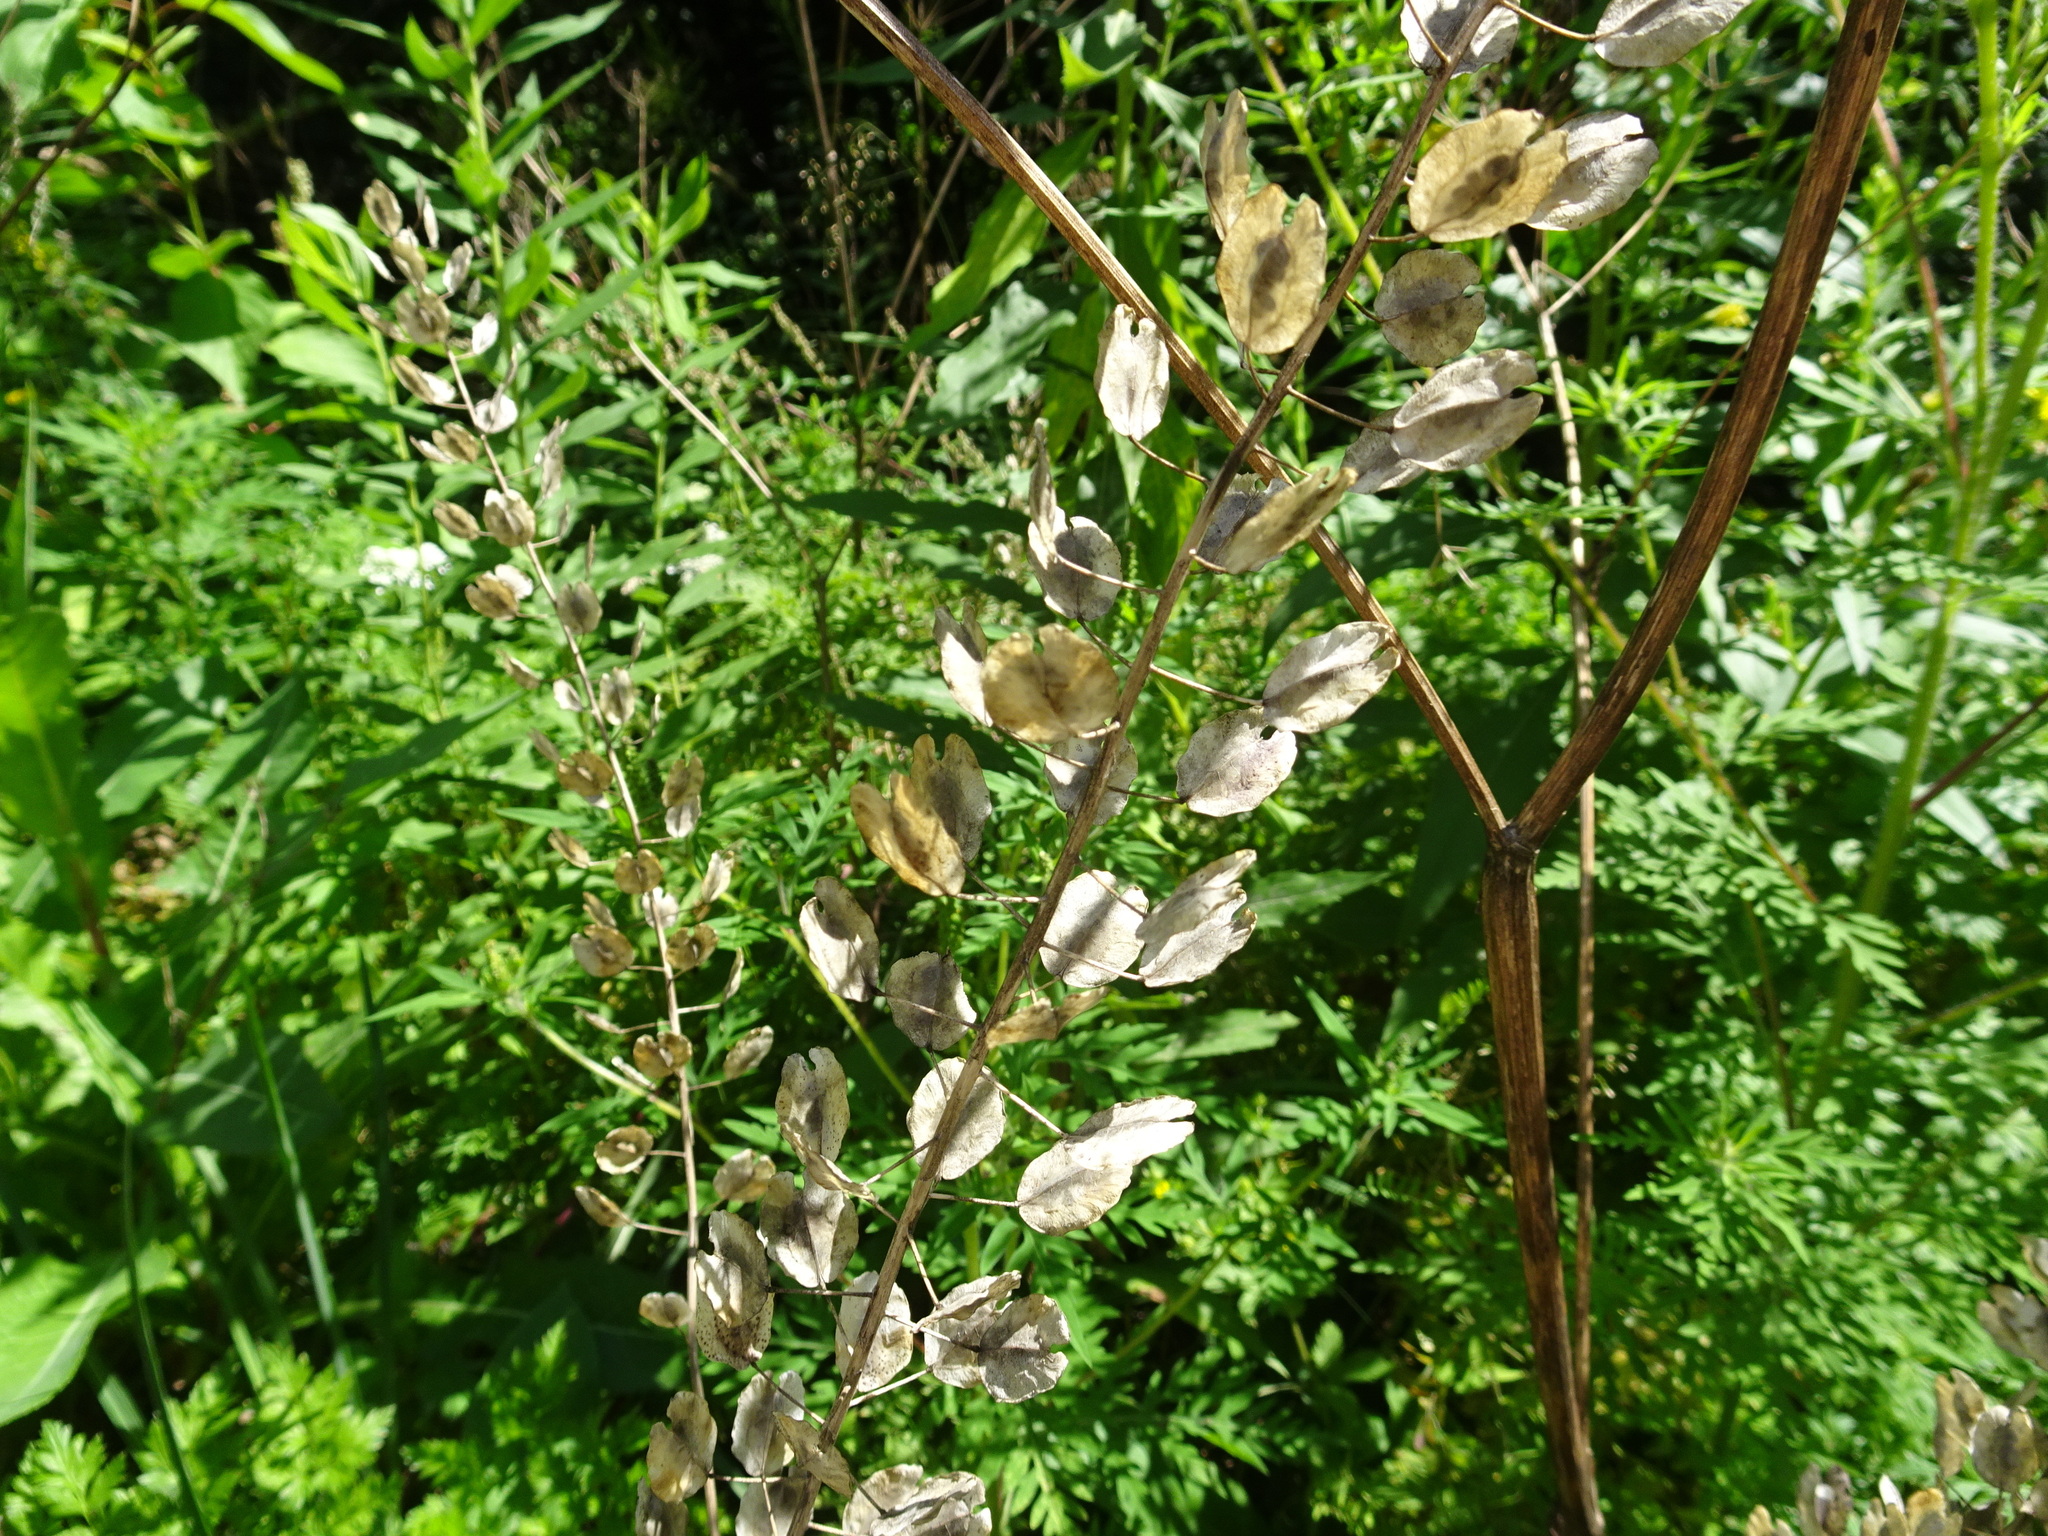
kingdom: Plantae
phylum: Tracheophyta
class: Magnoliopsida
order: Brassicales
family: Brassicaceae
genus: Thlaspi
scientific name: Thlaspi arvense
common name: Field pennycress
